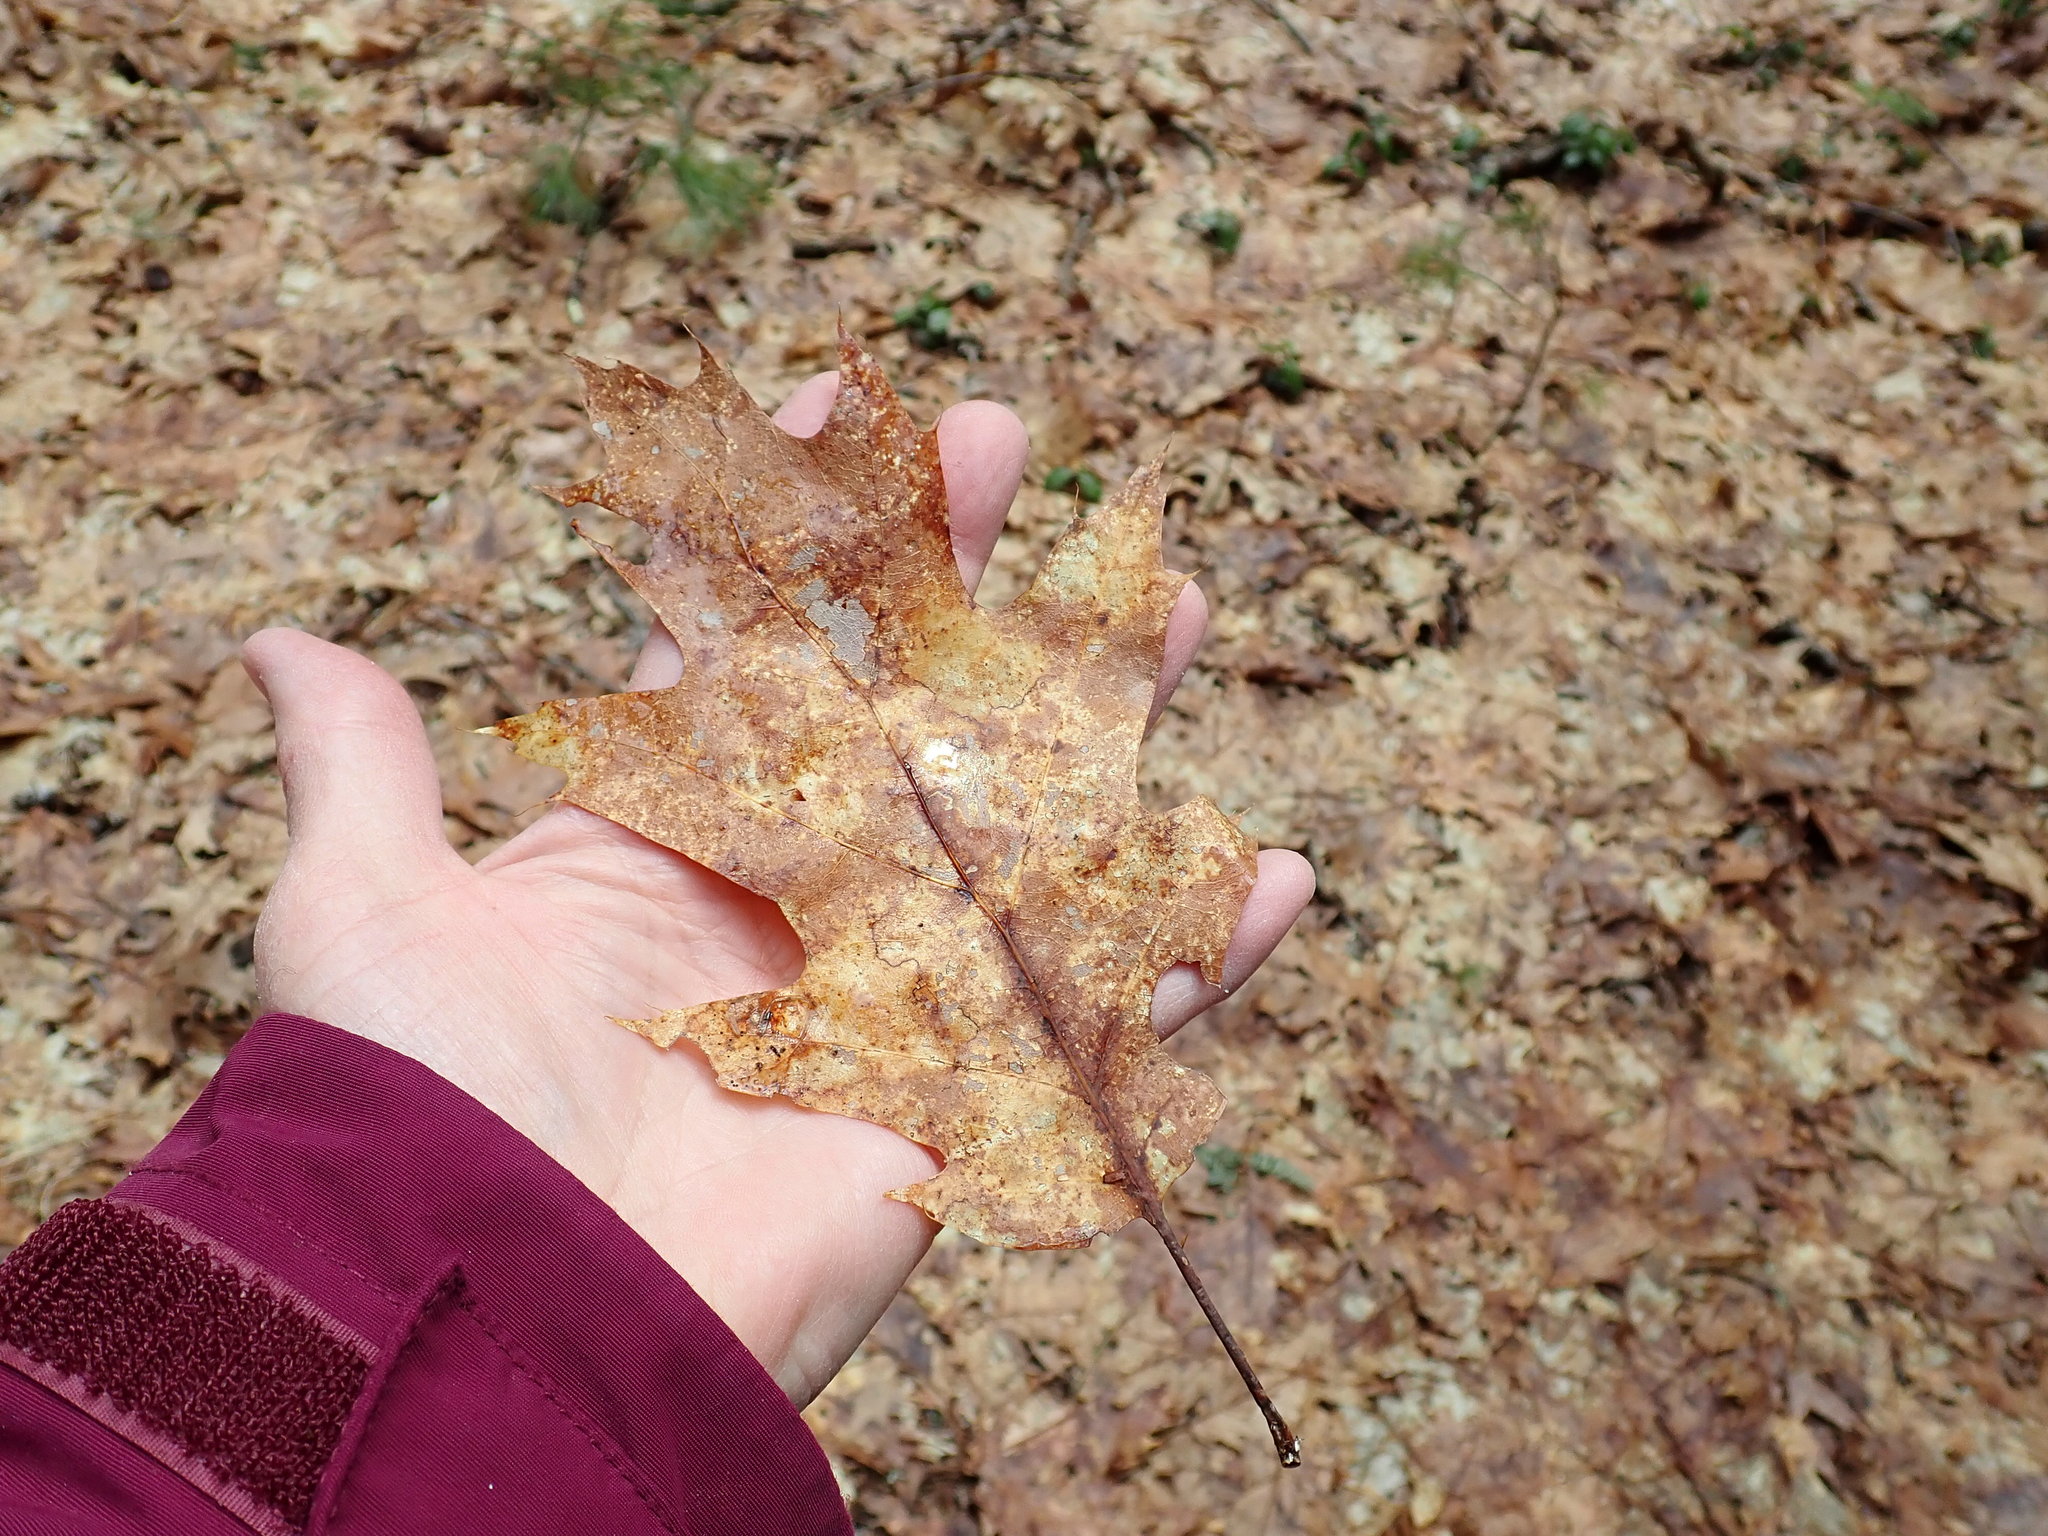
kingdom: Plantae
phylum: Tracheophyta
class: Magnoliopsida
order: Fagales
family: Fagaceae
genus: Quercus
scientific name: Quercus rubra
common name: Red oak
